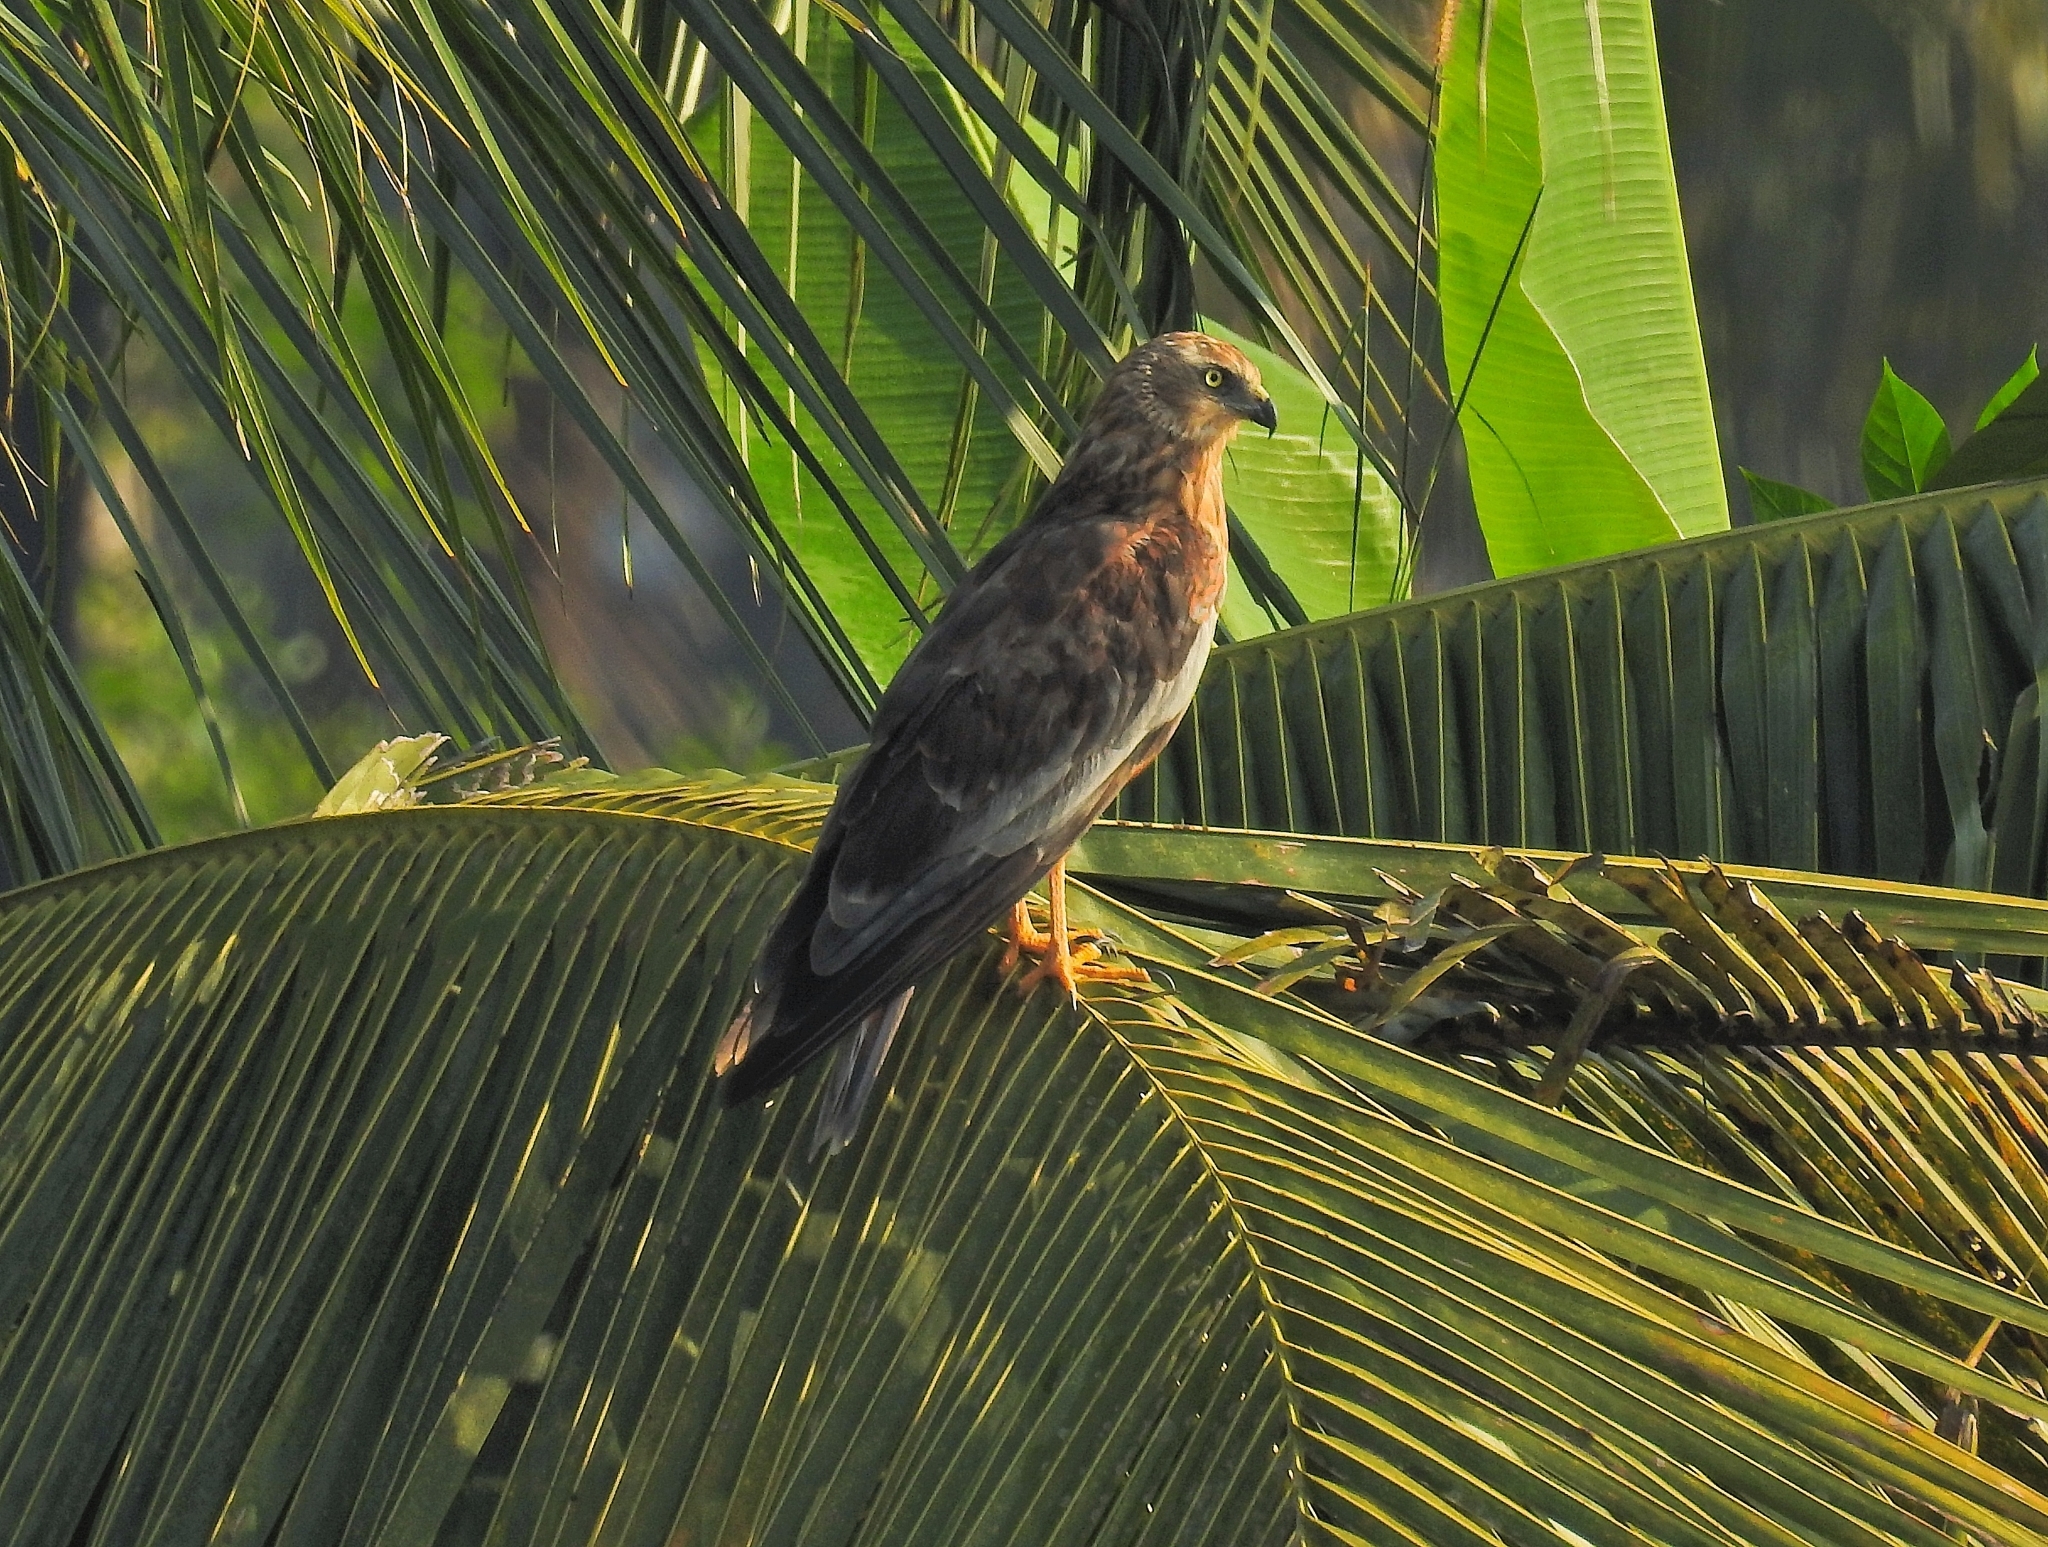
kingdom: Animalia
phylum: Chordata
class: Aves
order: Accipitriformes
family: Accipitridae
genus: Circus
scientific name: Circus aeruginosus
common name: Western marsh harrier
